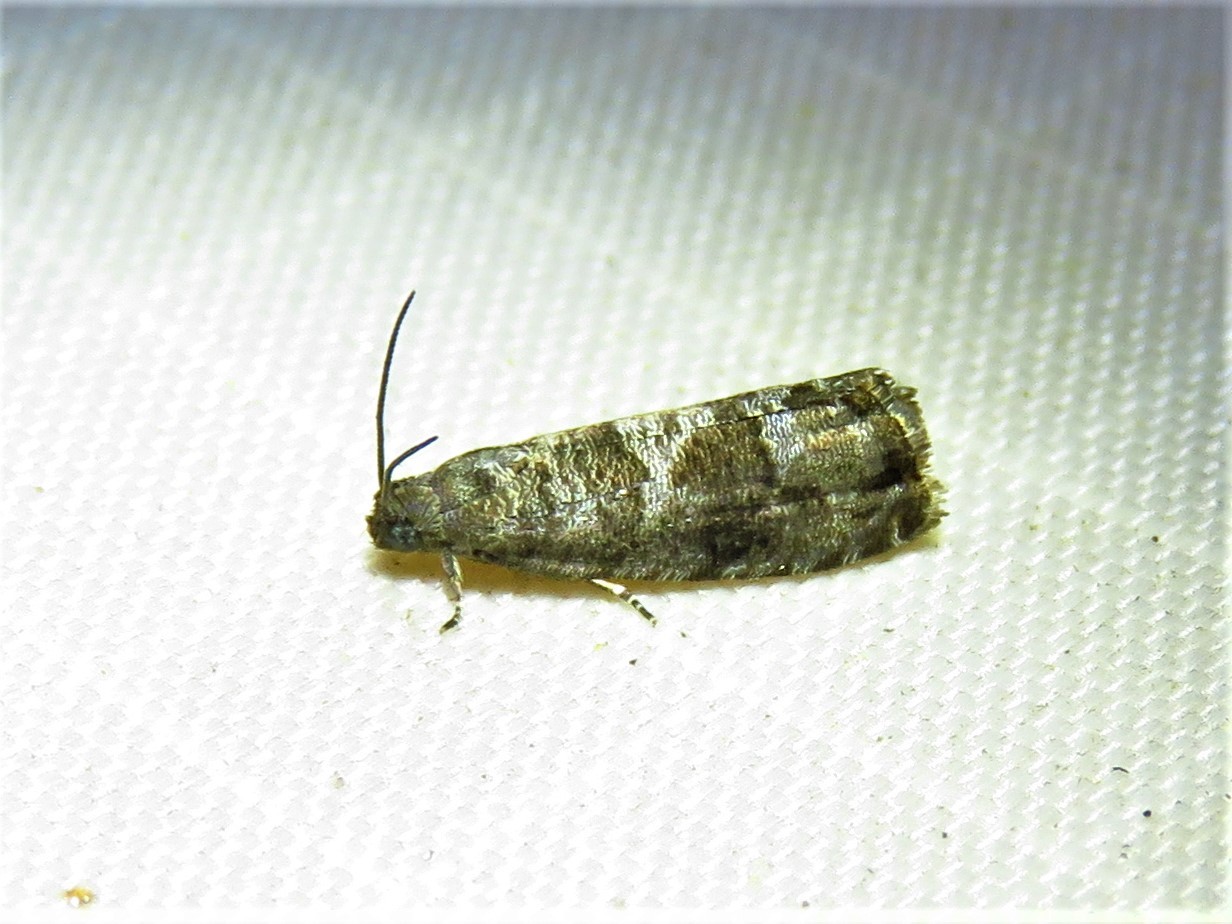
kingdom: Animalia
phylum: Arthropoda
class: Insecta
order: Lepidoptera
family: Noctuidae
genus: Aspila
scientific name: Aspila
